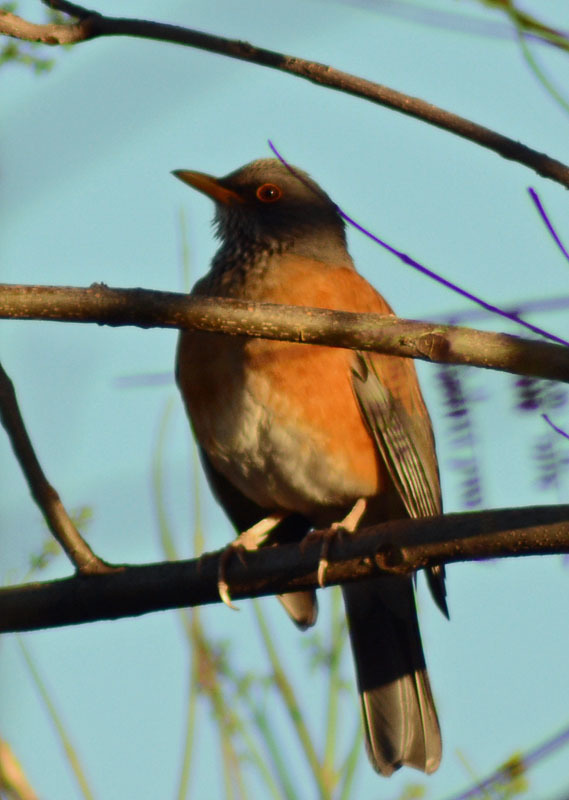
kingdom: Animalia
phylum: Chordata
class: Aves
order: Passeriformes
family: Turdidae
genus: Turdus
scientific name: Turdus rufopalliatus
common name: Rufous-backed robin
